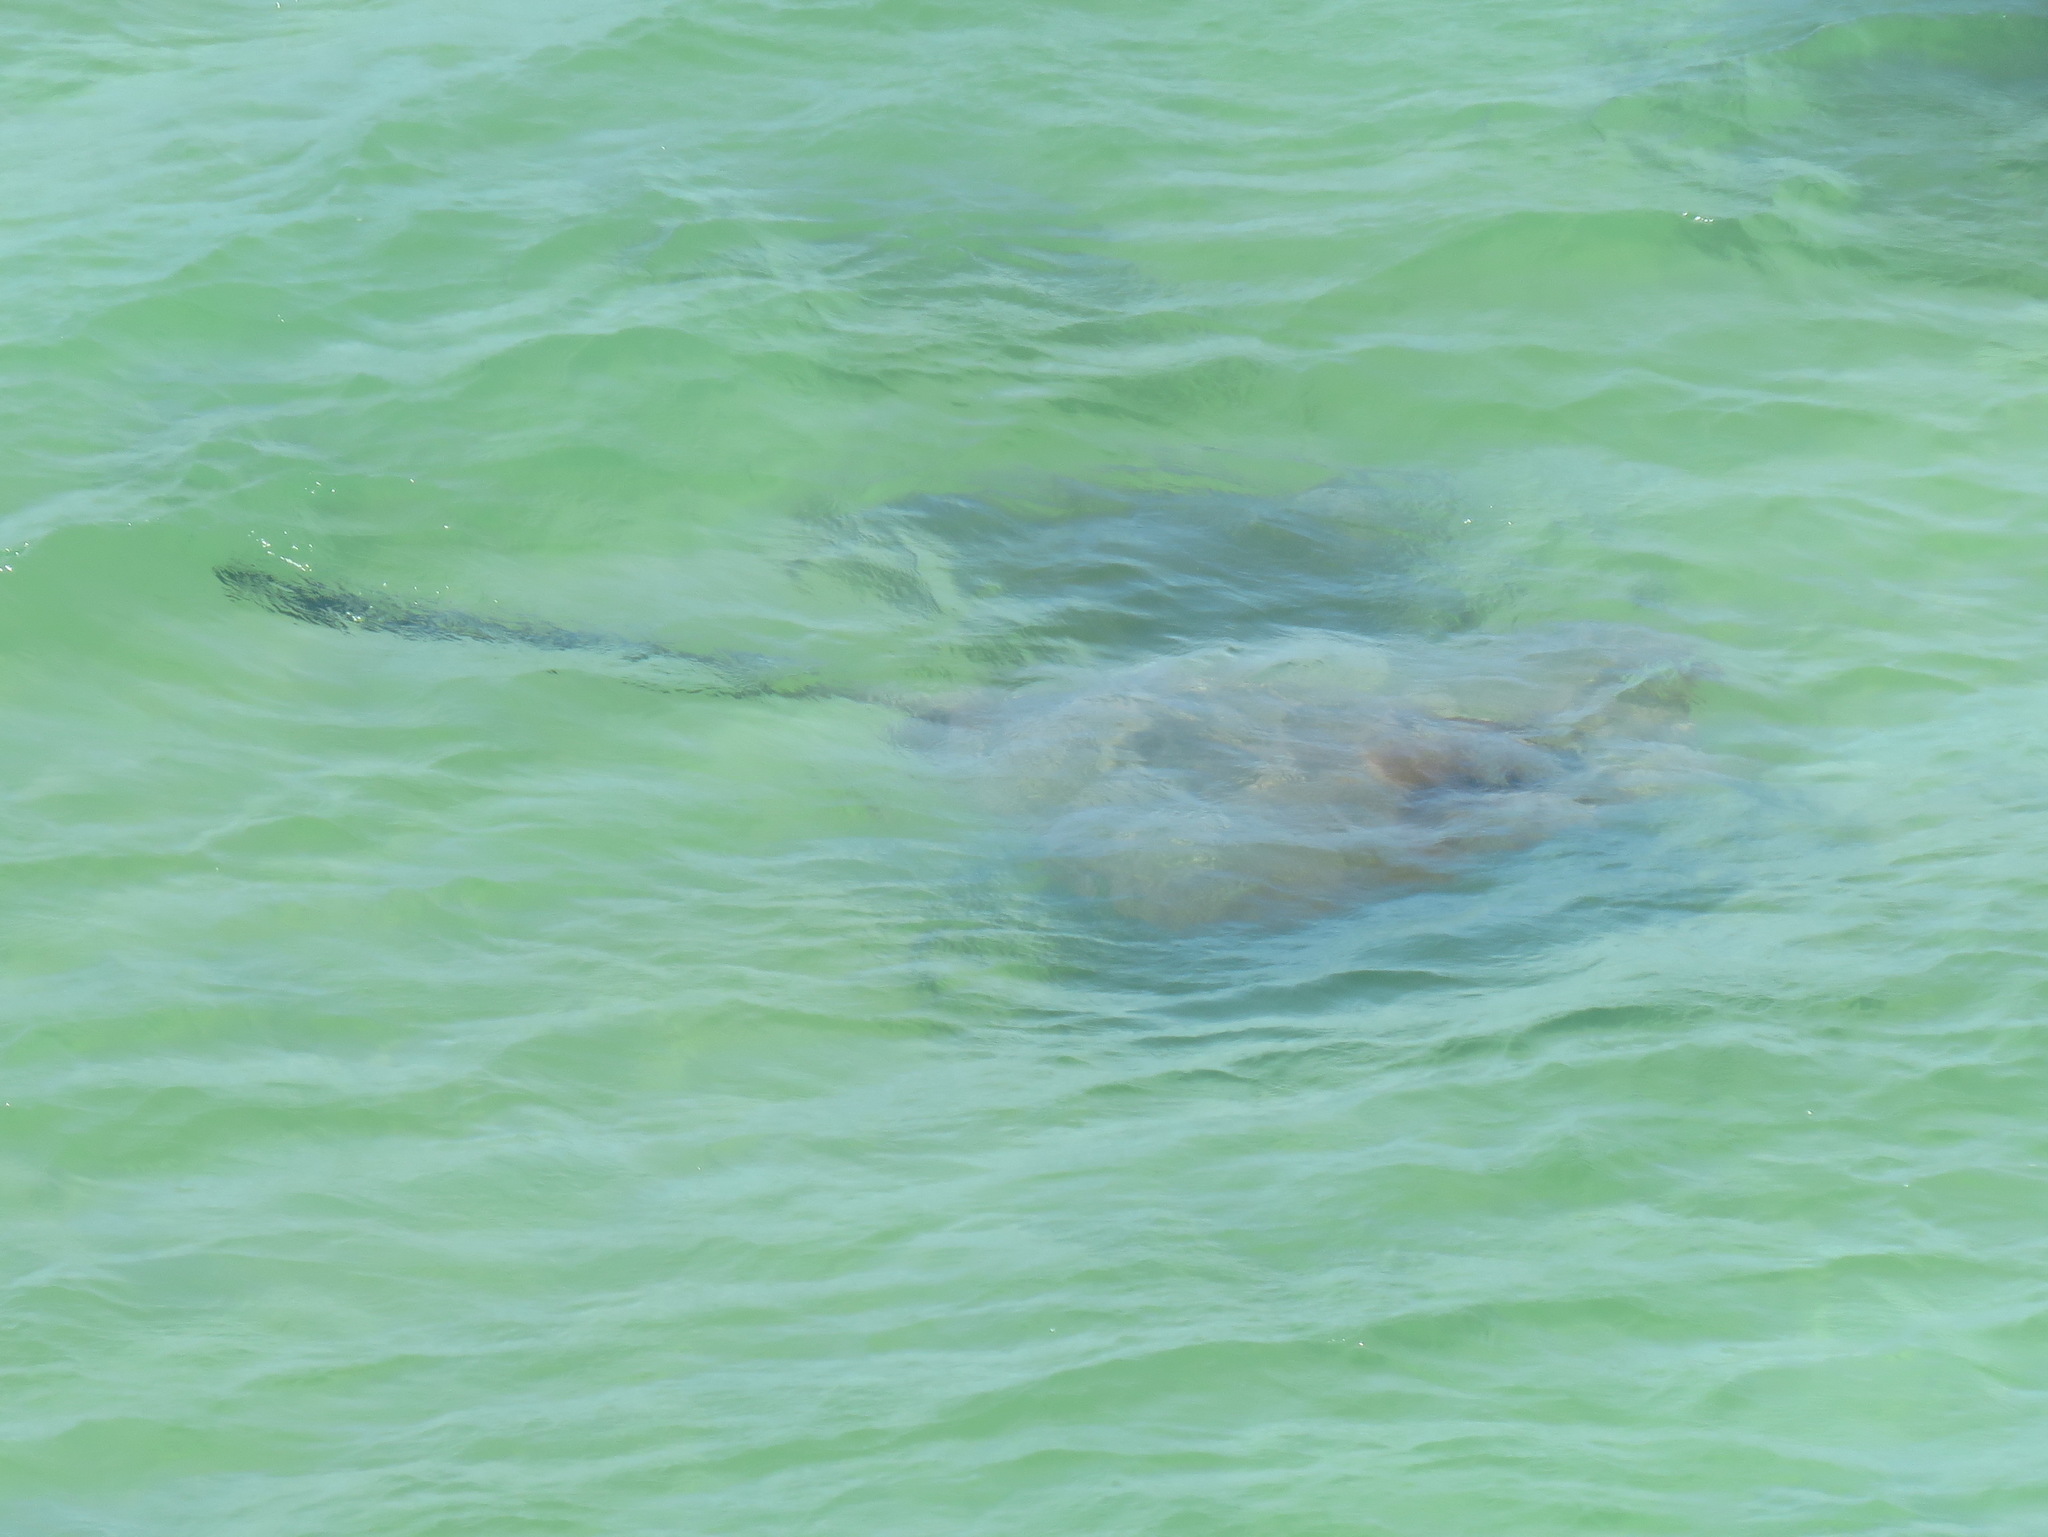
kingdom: Animalia
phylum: Chordata
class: Elasmobranchii
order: Myliobatiformes
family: Dasyatidae
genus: Pastinachus
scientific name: Pastinachus ater
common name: Banana-tail ray
